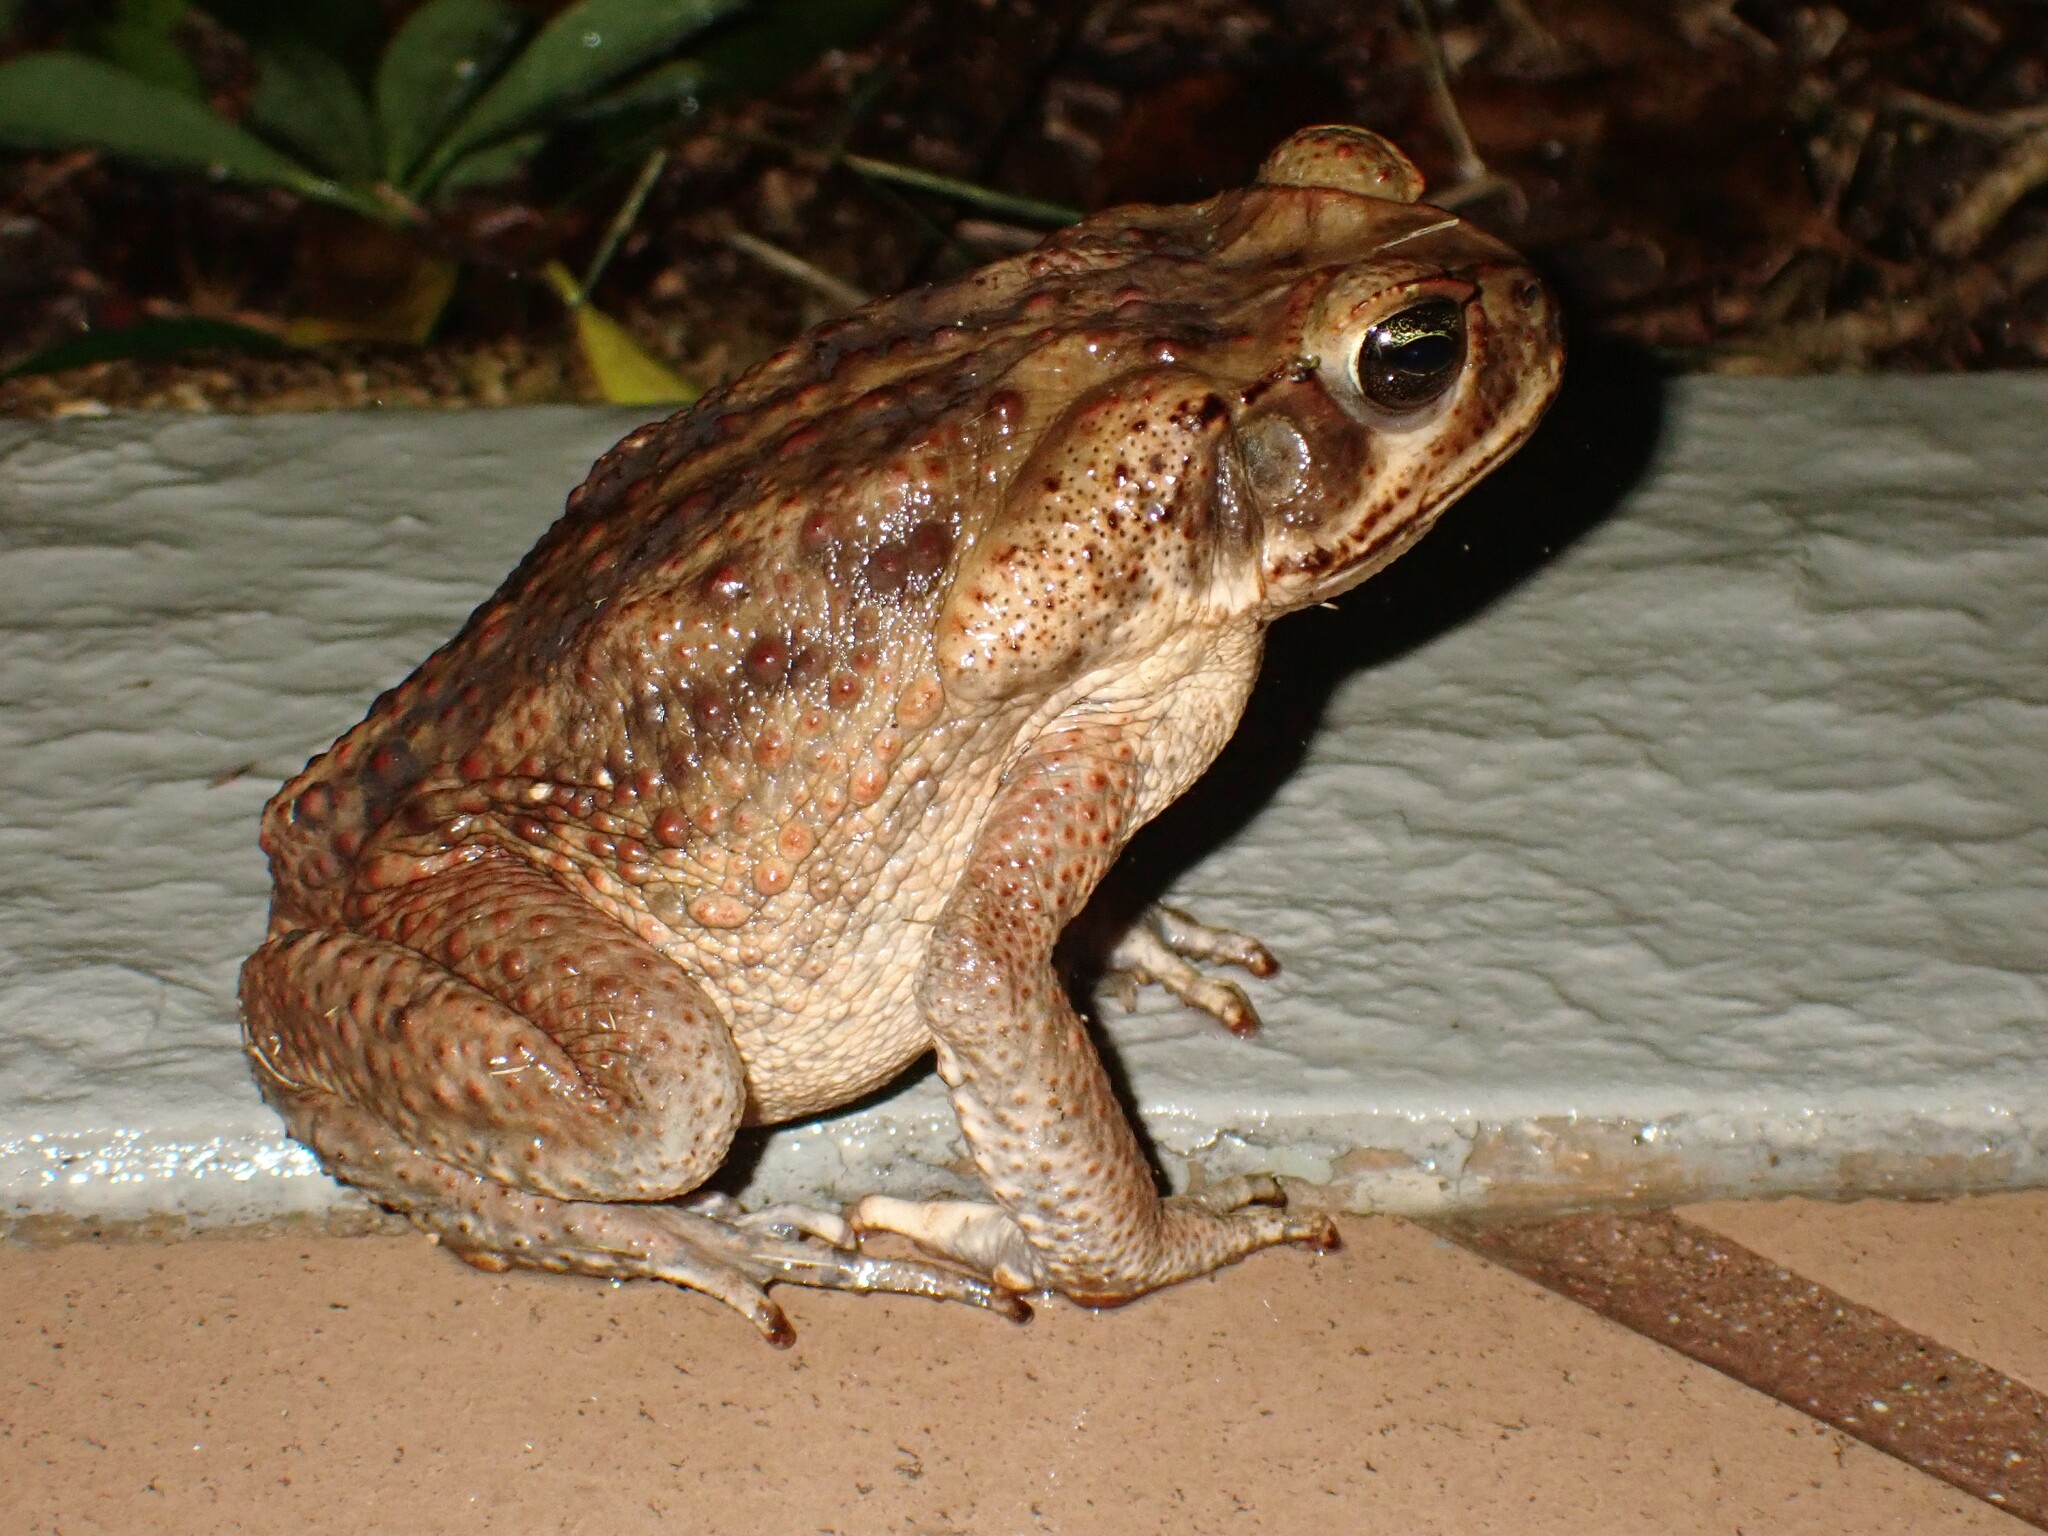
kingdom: Animalia
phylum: Chordata
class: Amphibia
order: Anura
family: Bufonidae
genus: Rhinella
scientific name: Rhinella horribilis
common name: Mesoamerican cane toad
